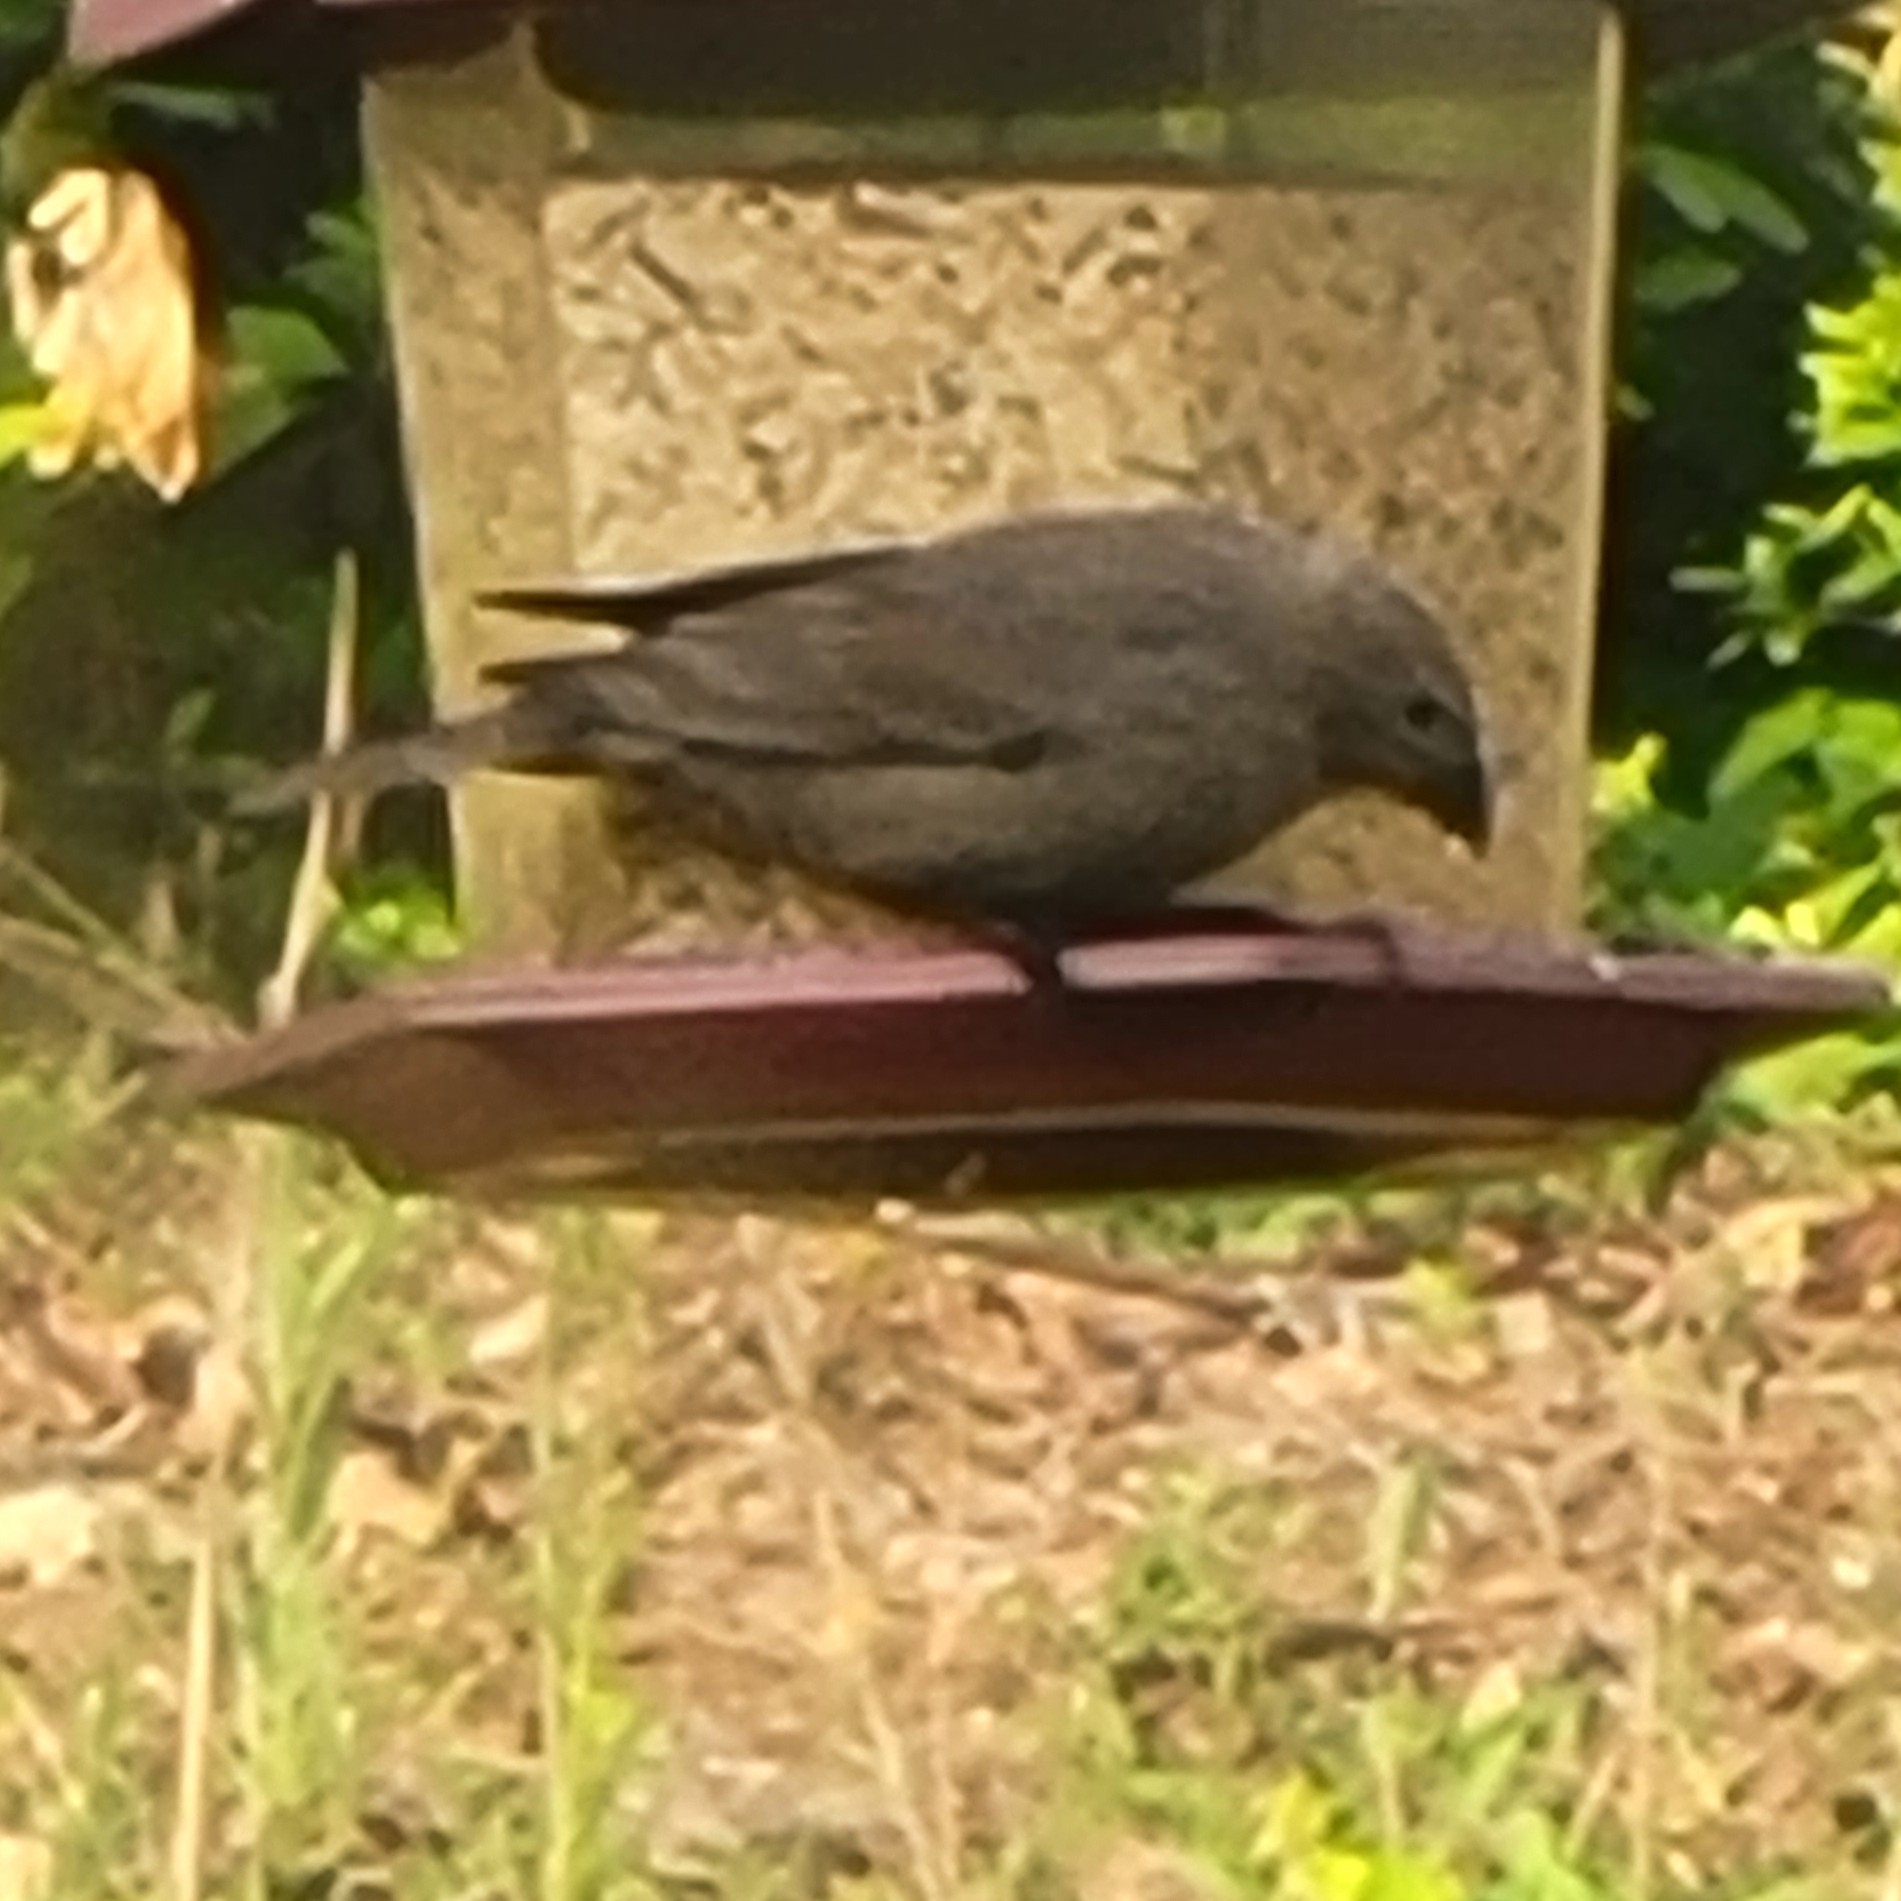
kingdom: Animalia
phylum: Chordata
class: Aves
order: Passeriformes
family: Icteridae
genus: Molothrus
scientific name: Molothrus ater
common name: Brown-headed cowbird
